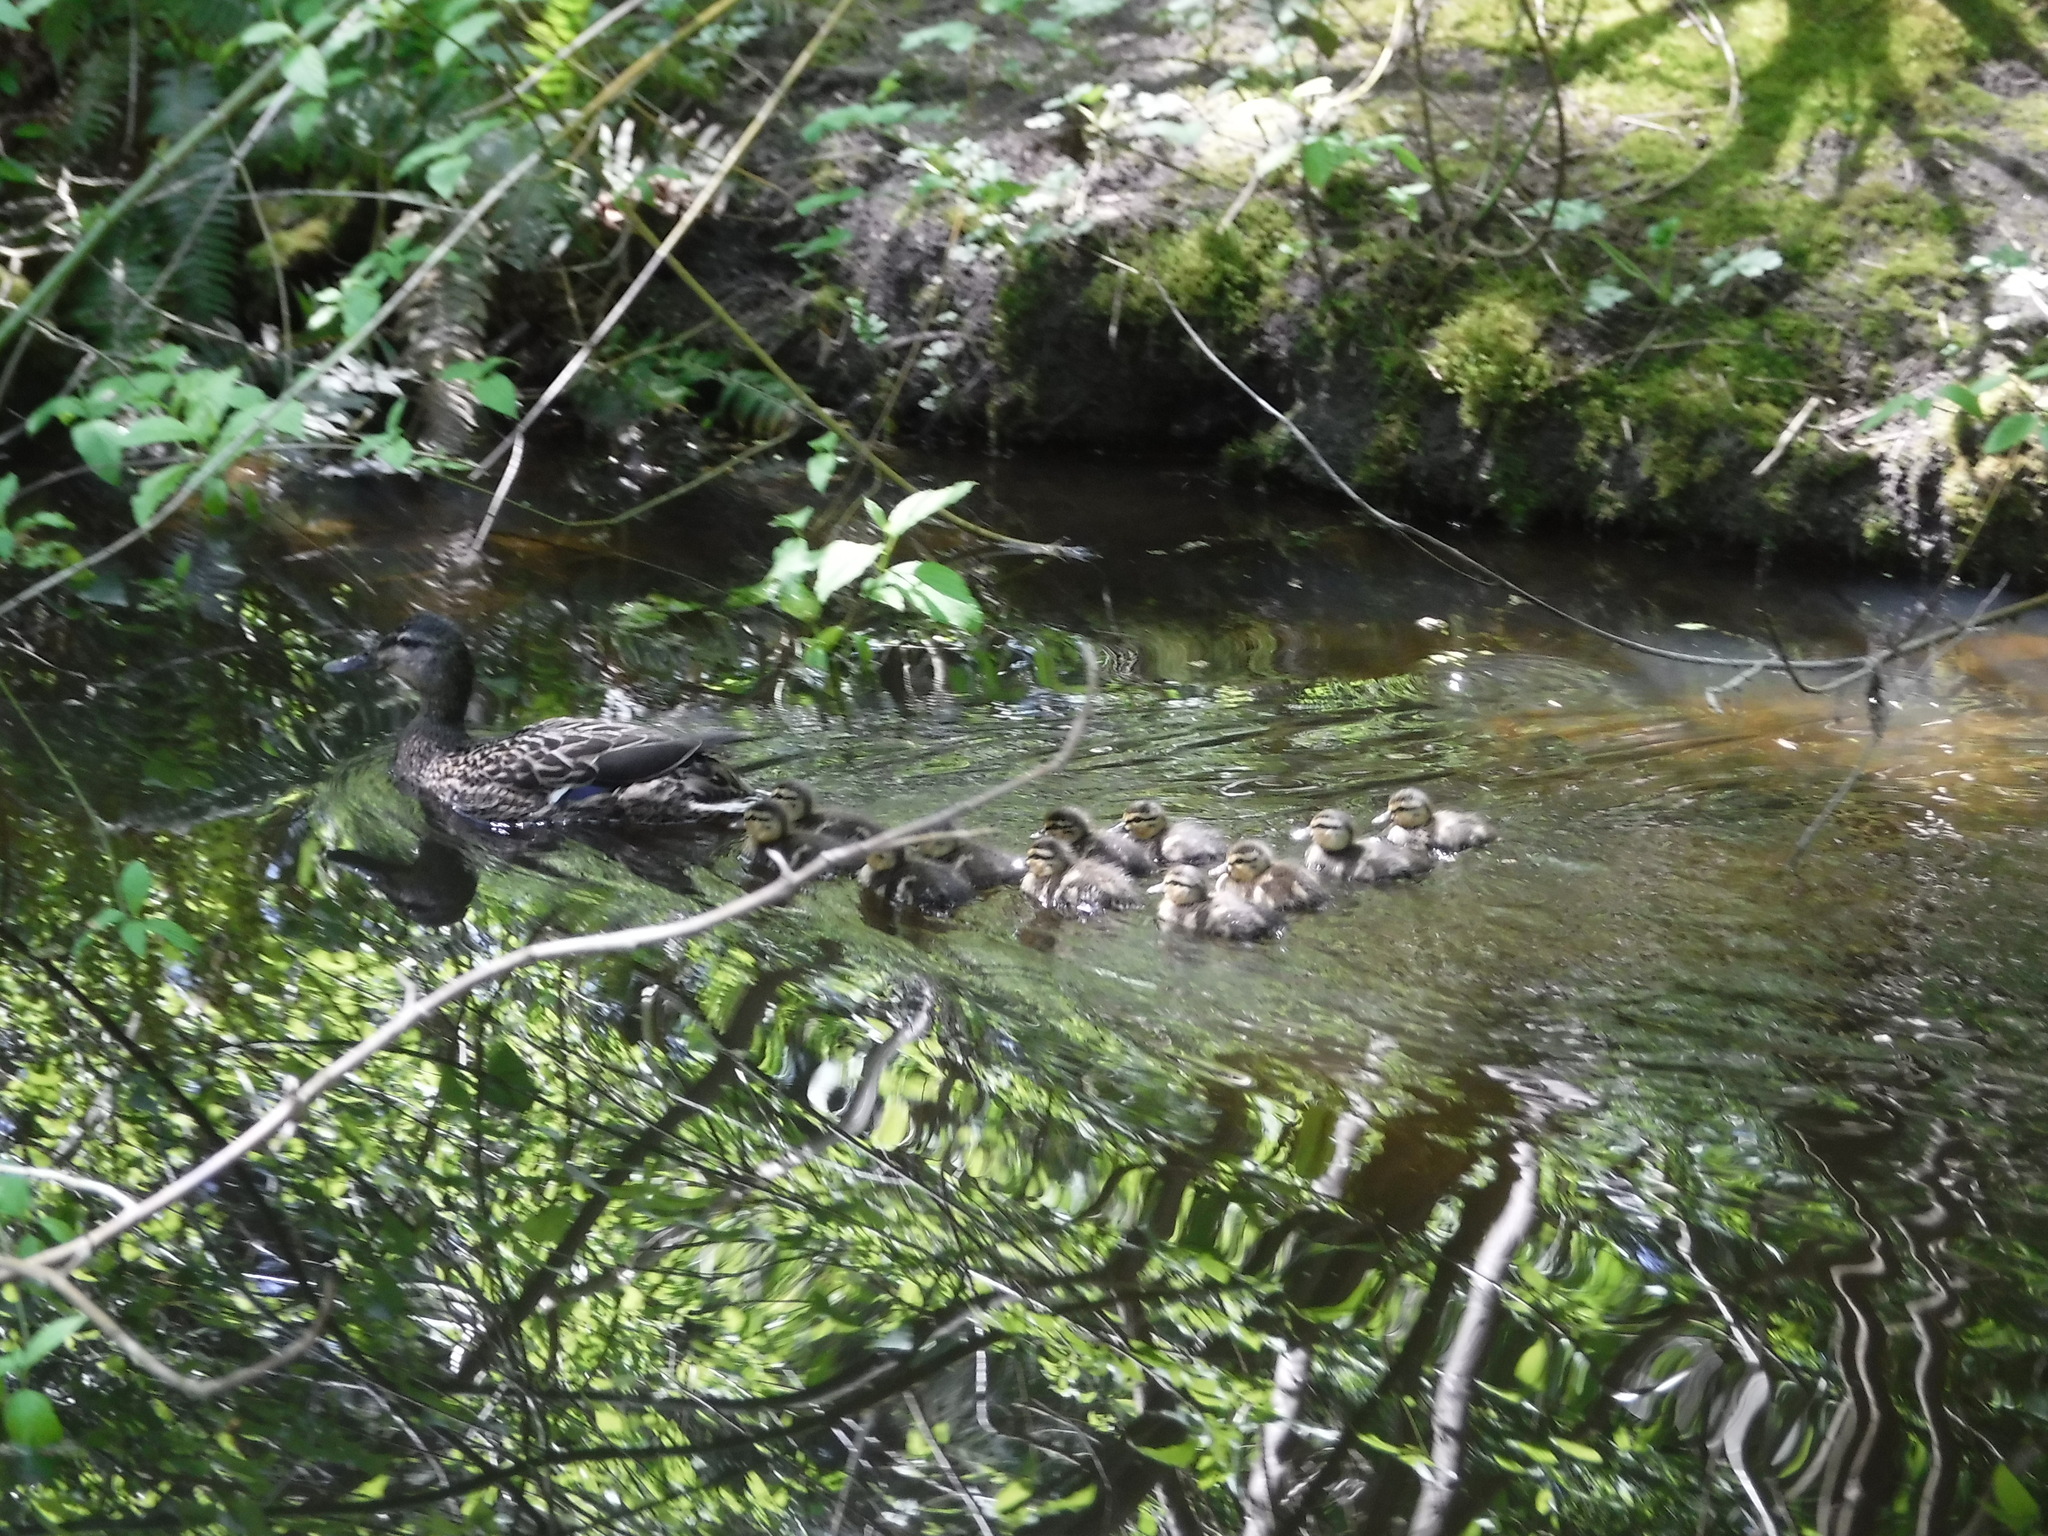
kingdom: Animalia
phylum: Chordata
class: Aves
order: Anseriformes
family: Anatidae
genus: Anas
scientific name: Anas platyrhynchos
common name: Mallard
